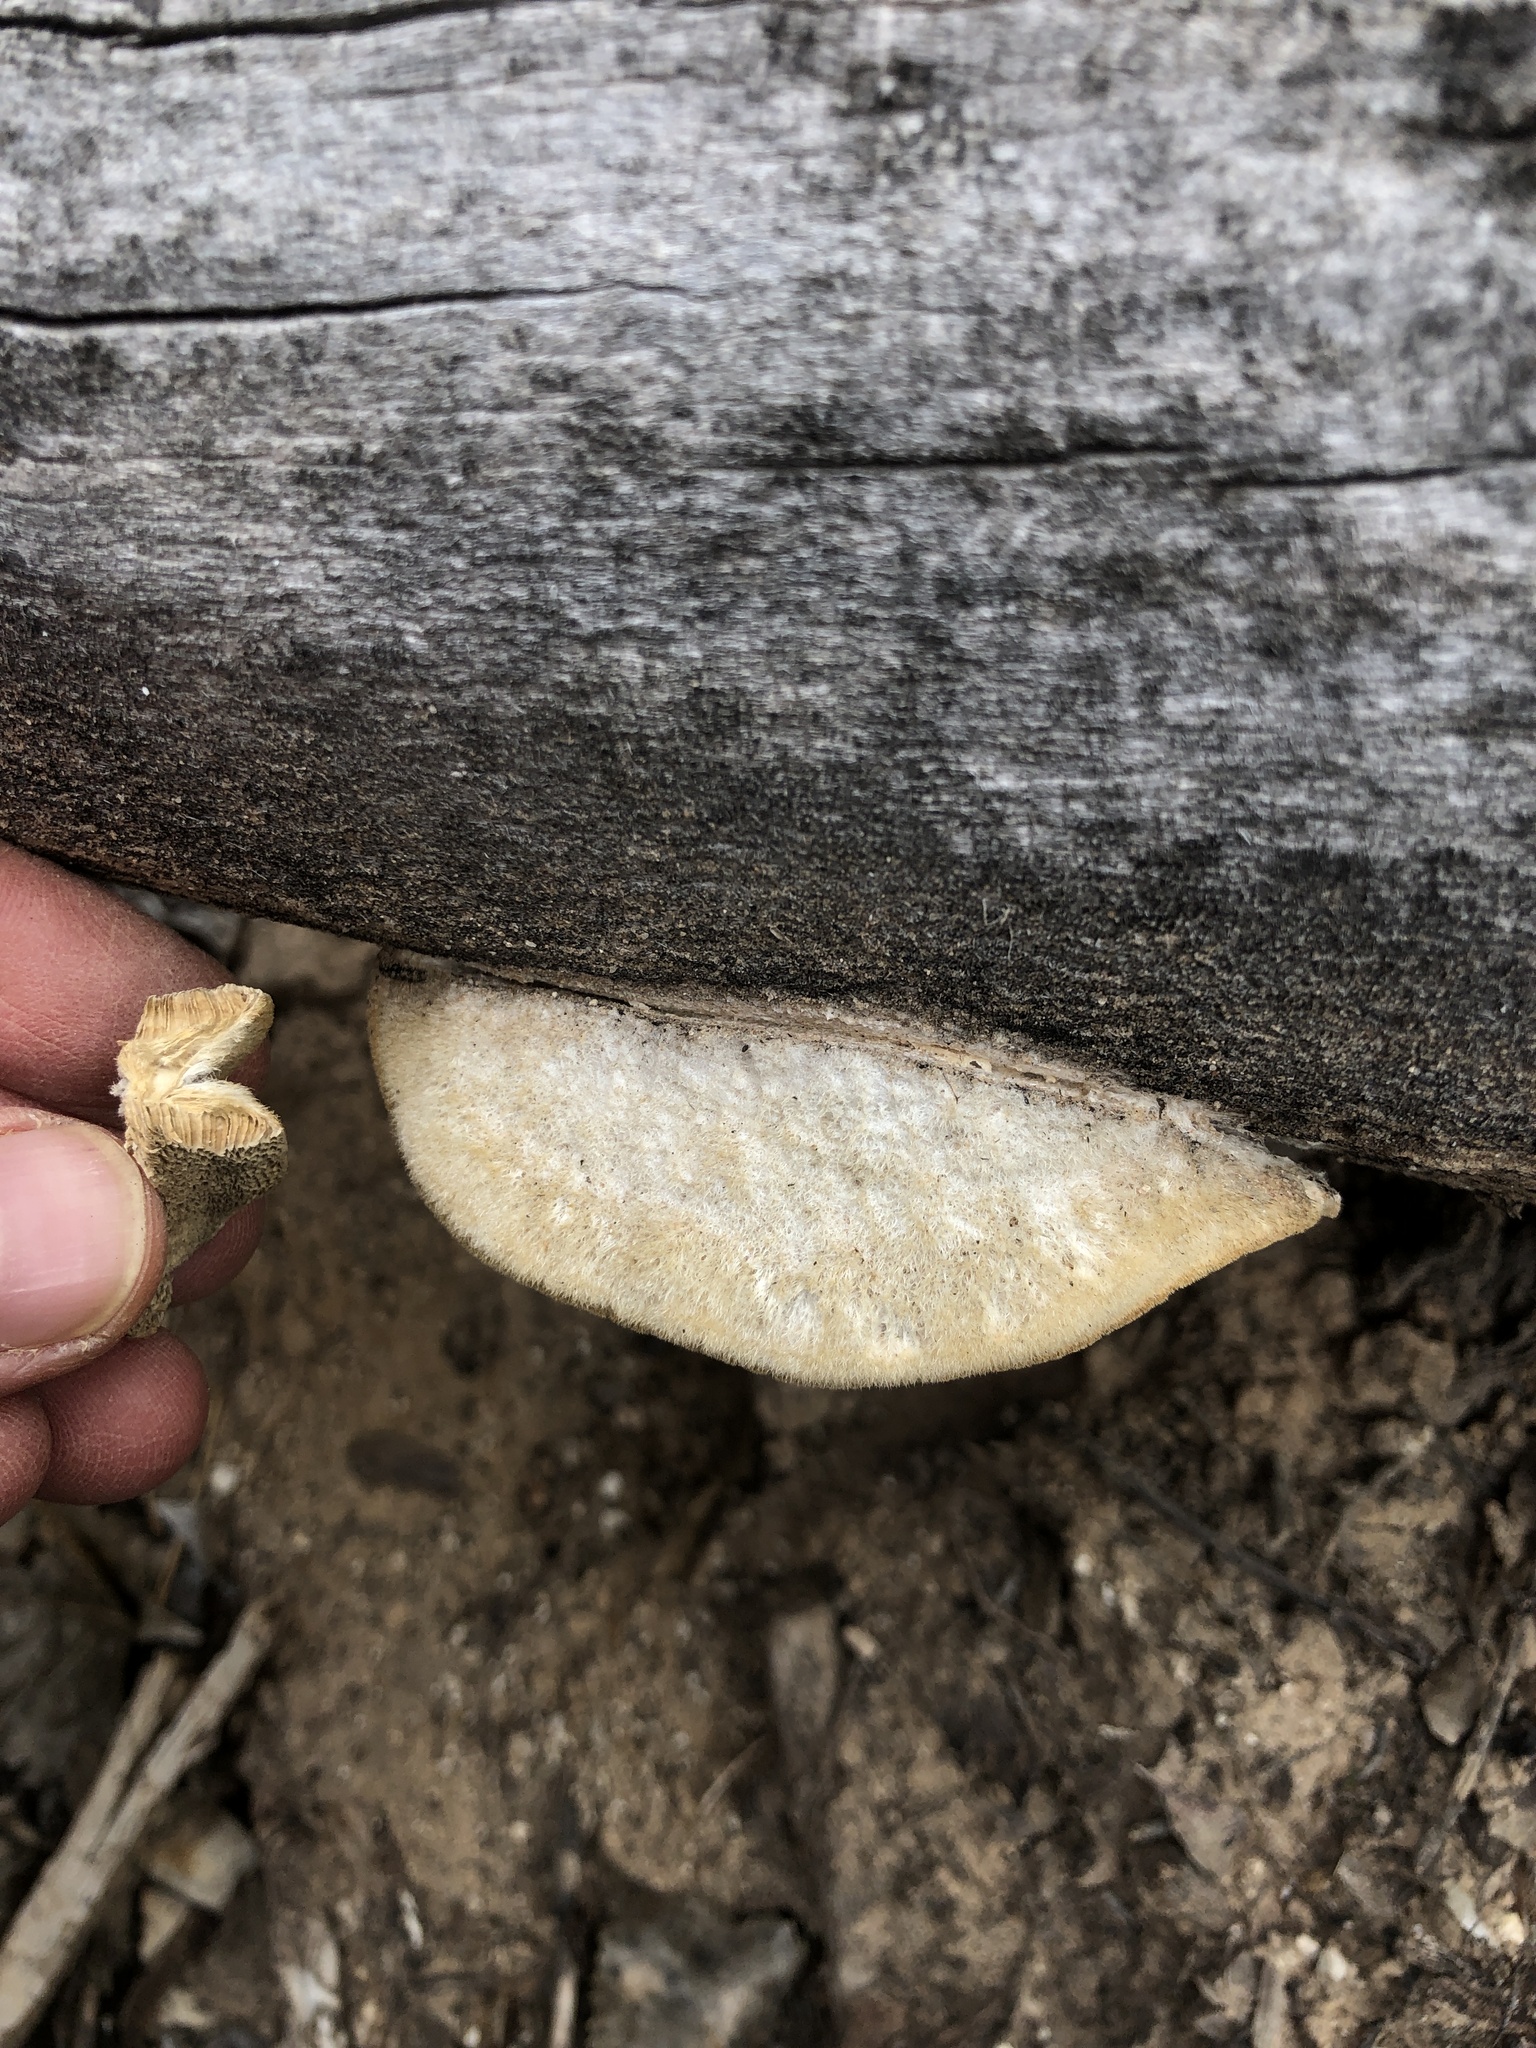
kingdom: Fungi
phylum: Basidiomycota
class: Agaricomycetes
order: Polyporales
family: Polyporaceae
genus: Coriolopsis
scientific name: Coriolopsis gallica
